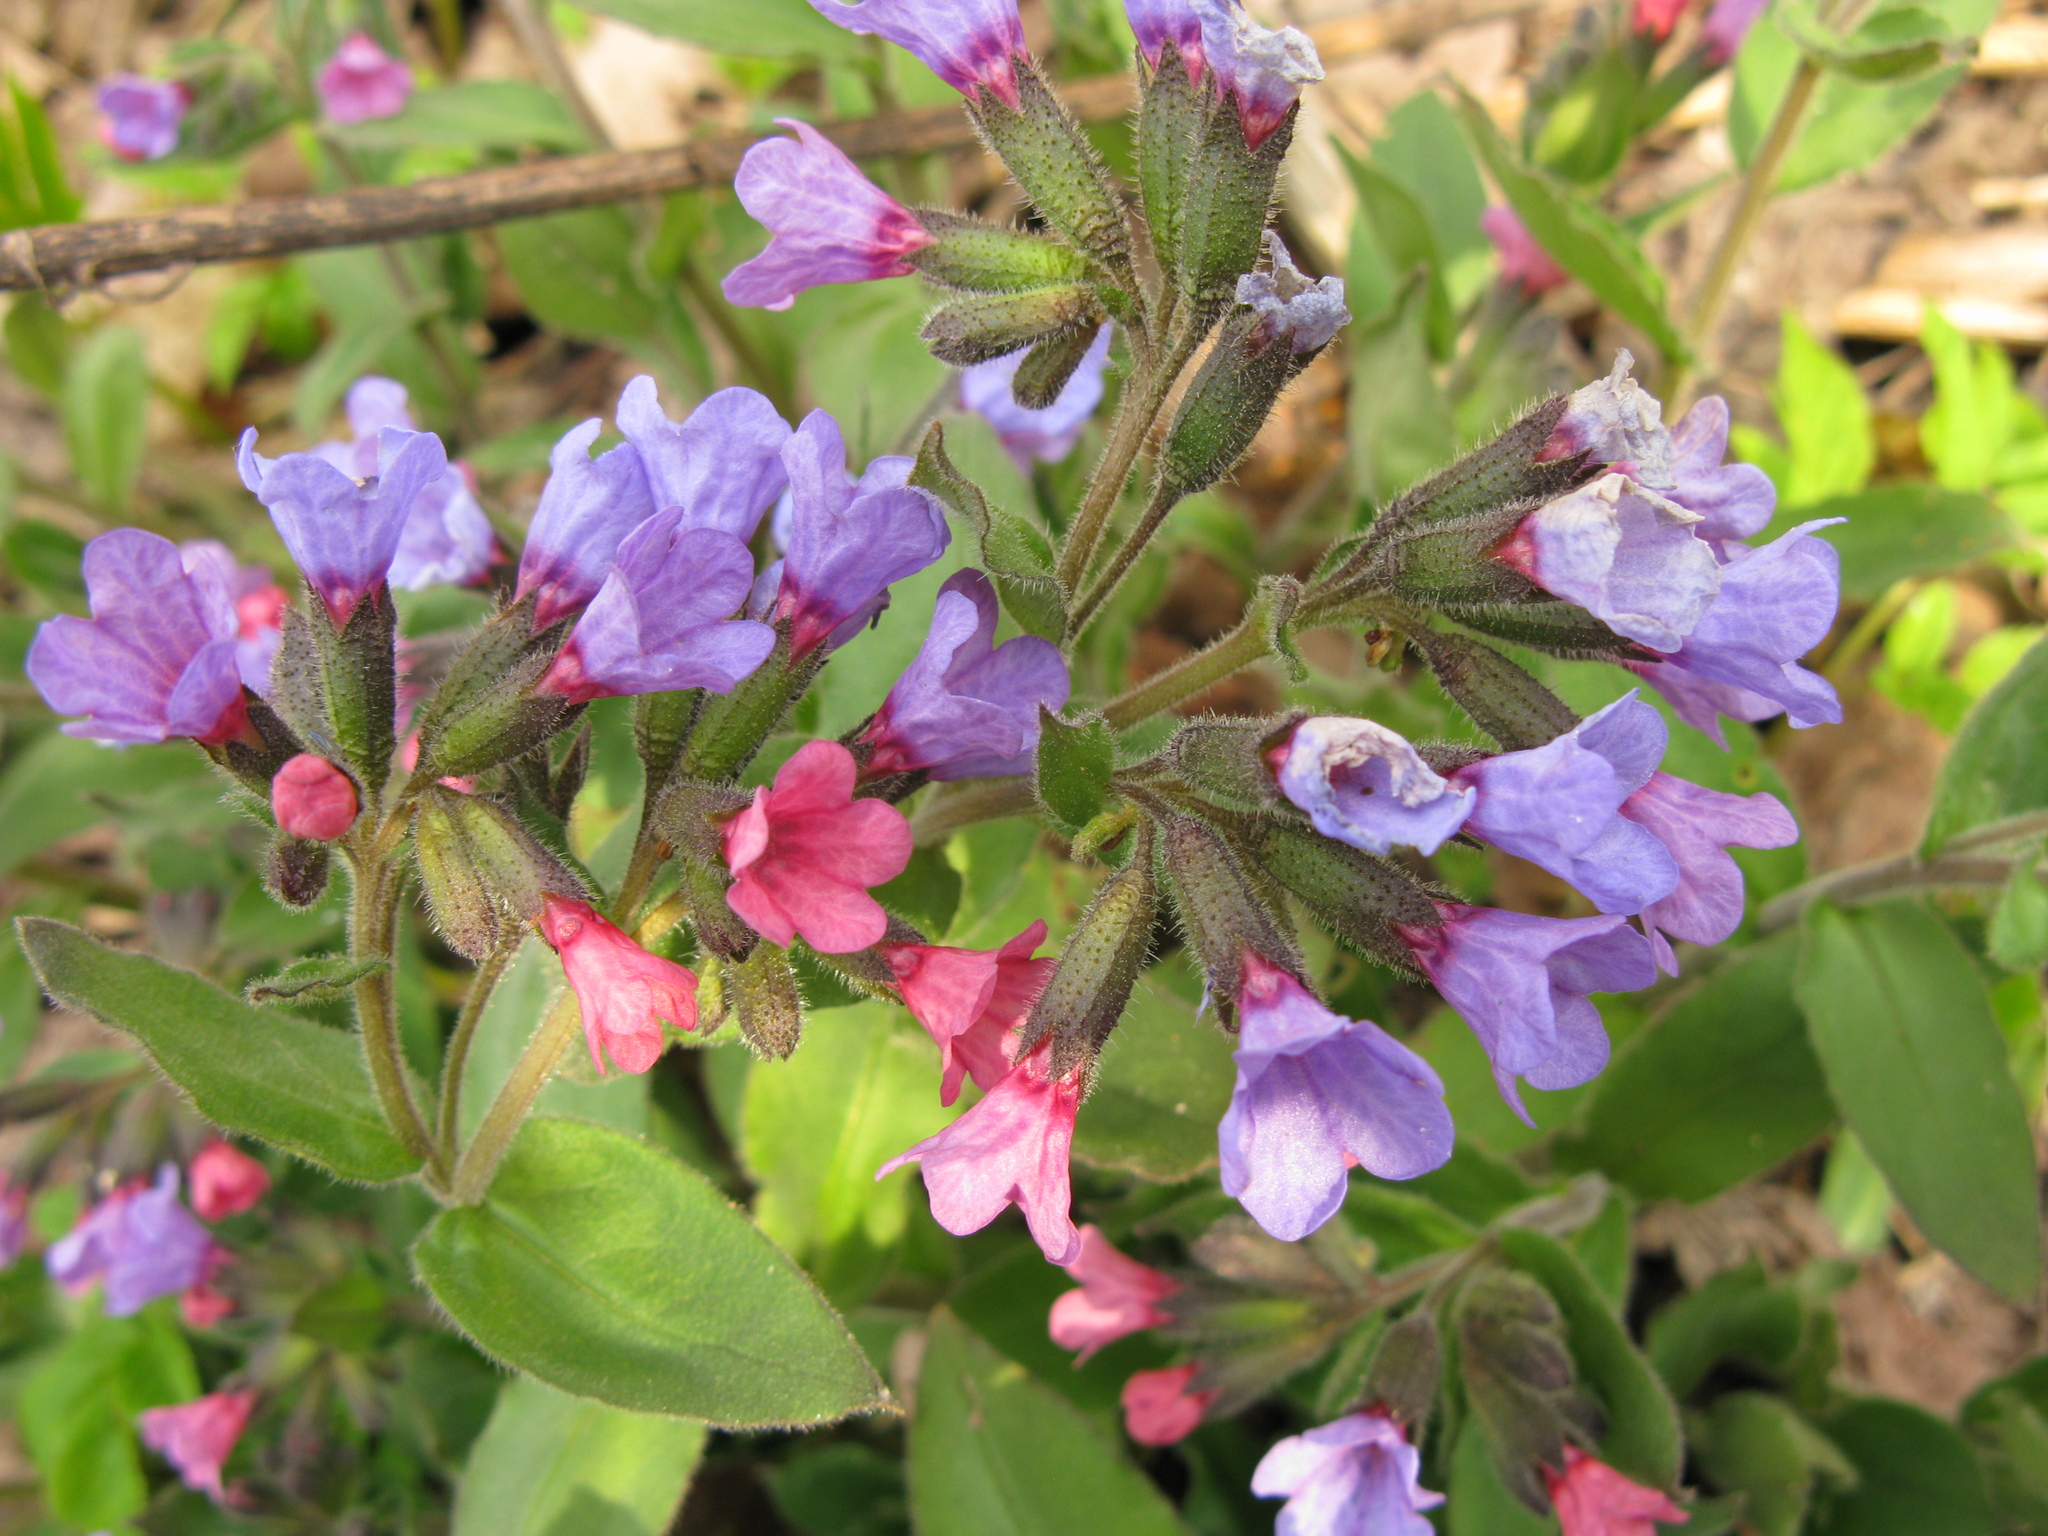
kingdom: Plantae
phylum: Tracheophyta
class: Magnoliopsida
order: Boraginales
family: Boraginaceae
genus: Pulmonaria
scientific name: Pulmonaria obscura
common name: Suffolk lungwort
